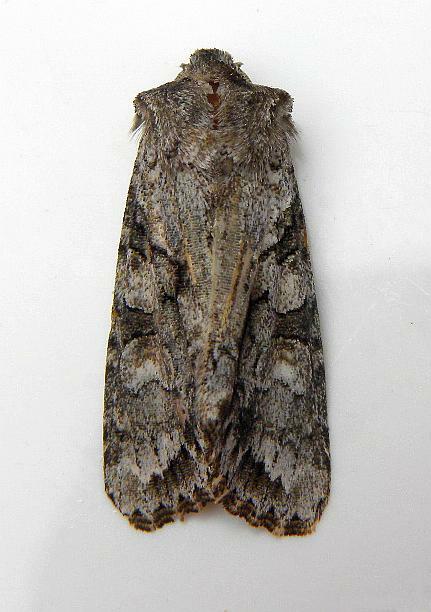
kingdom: Animalia
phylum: Arthropoda
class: Insecta
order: Lepidoptera
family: Noctuidae
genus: Achatia
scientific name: Achatia distincta
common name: Distinct quaker
